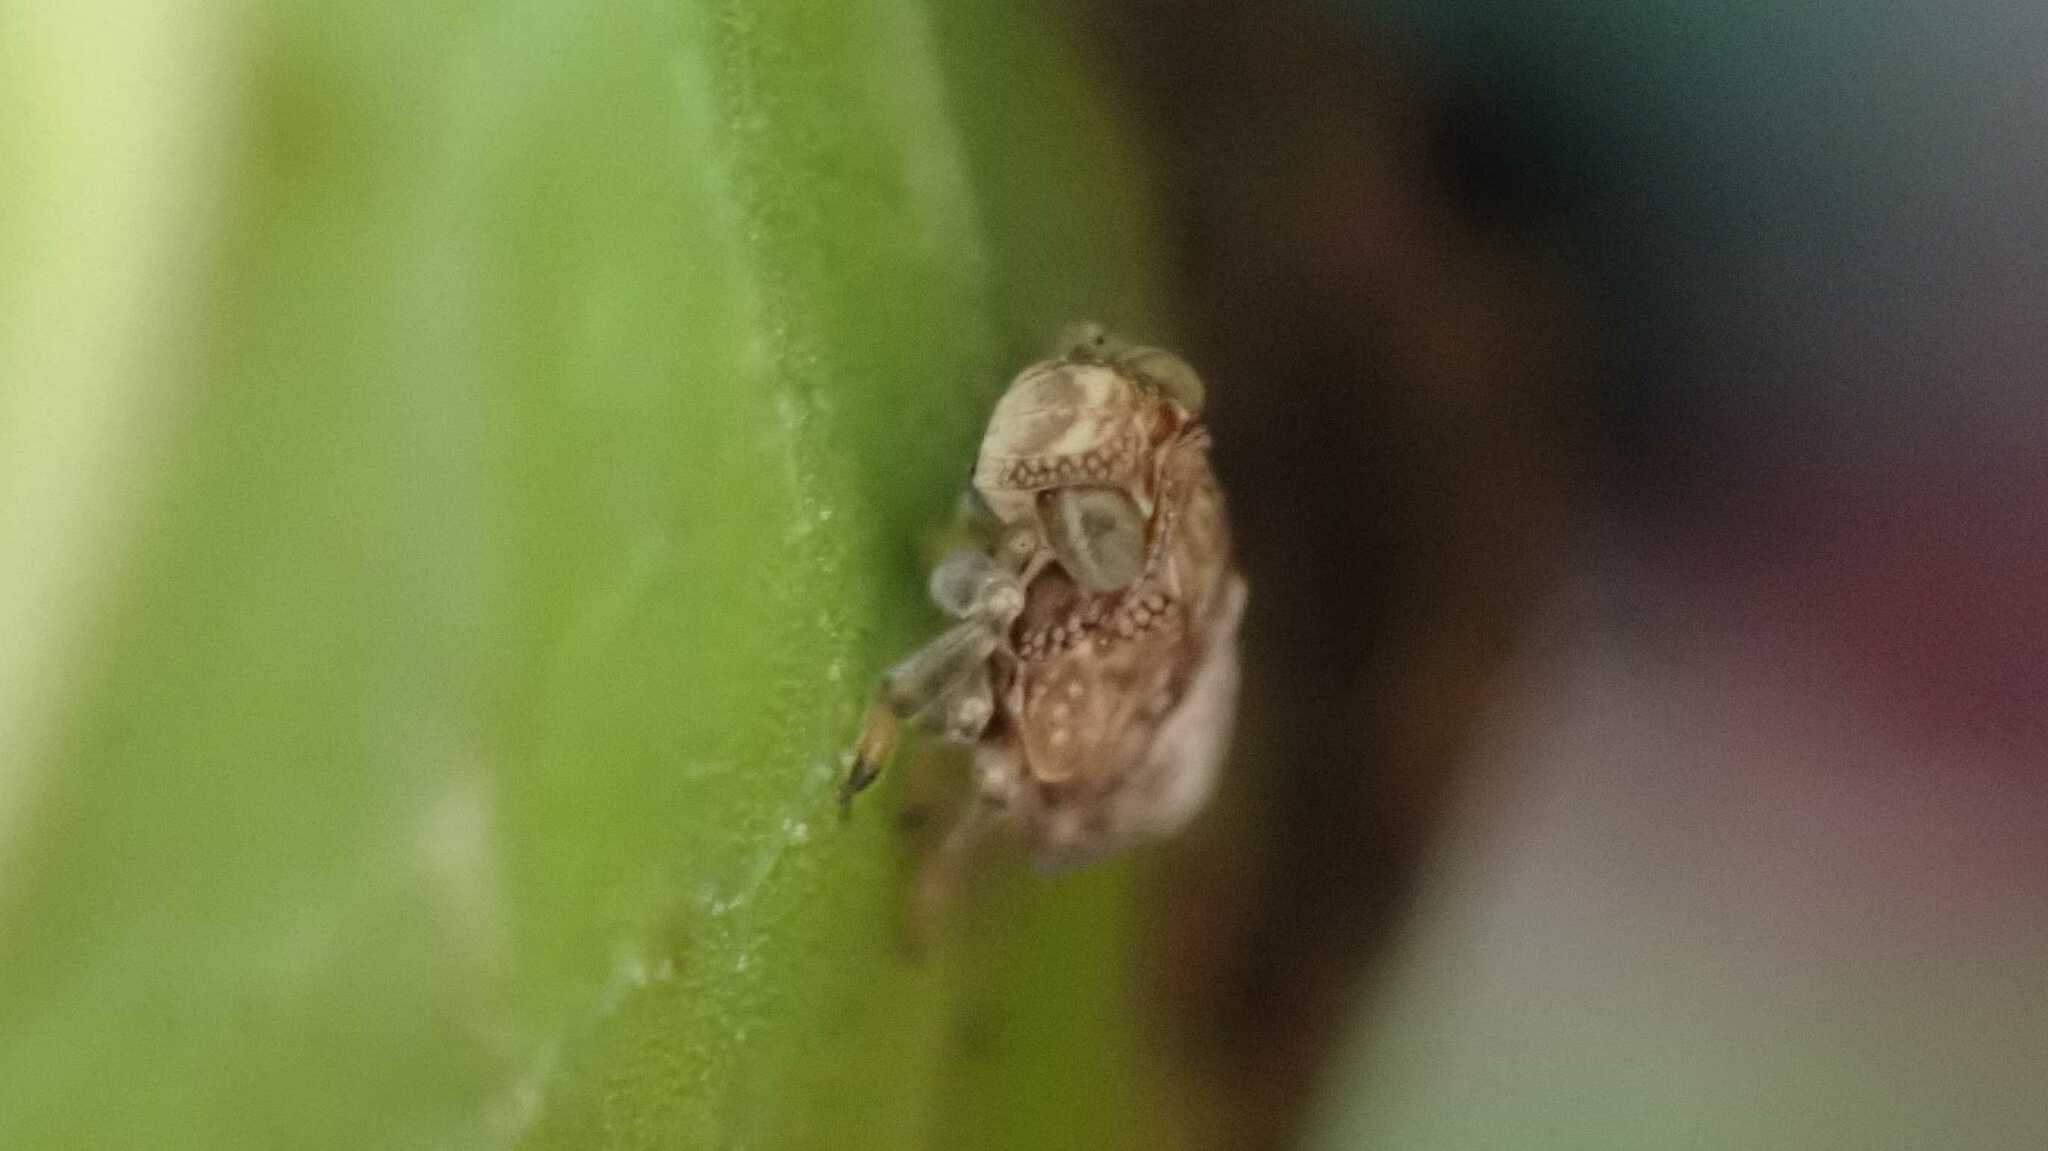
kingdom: Animalia
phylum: Arthropoda
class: Insecta
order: Hemiptera
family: Issidae
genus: Issus
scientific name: Issus coleoptratus
